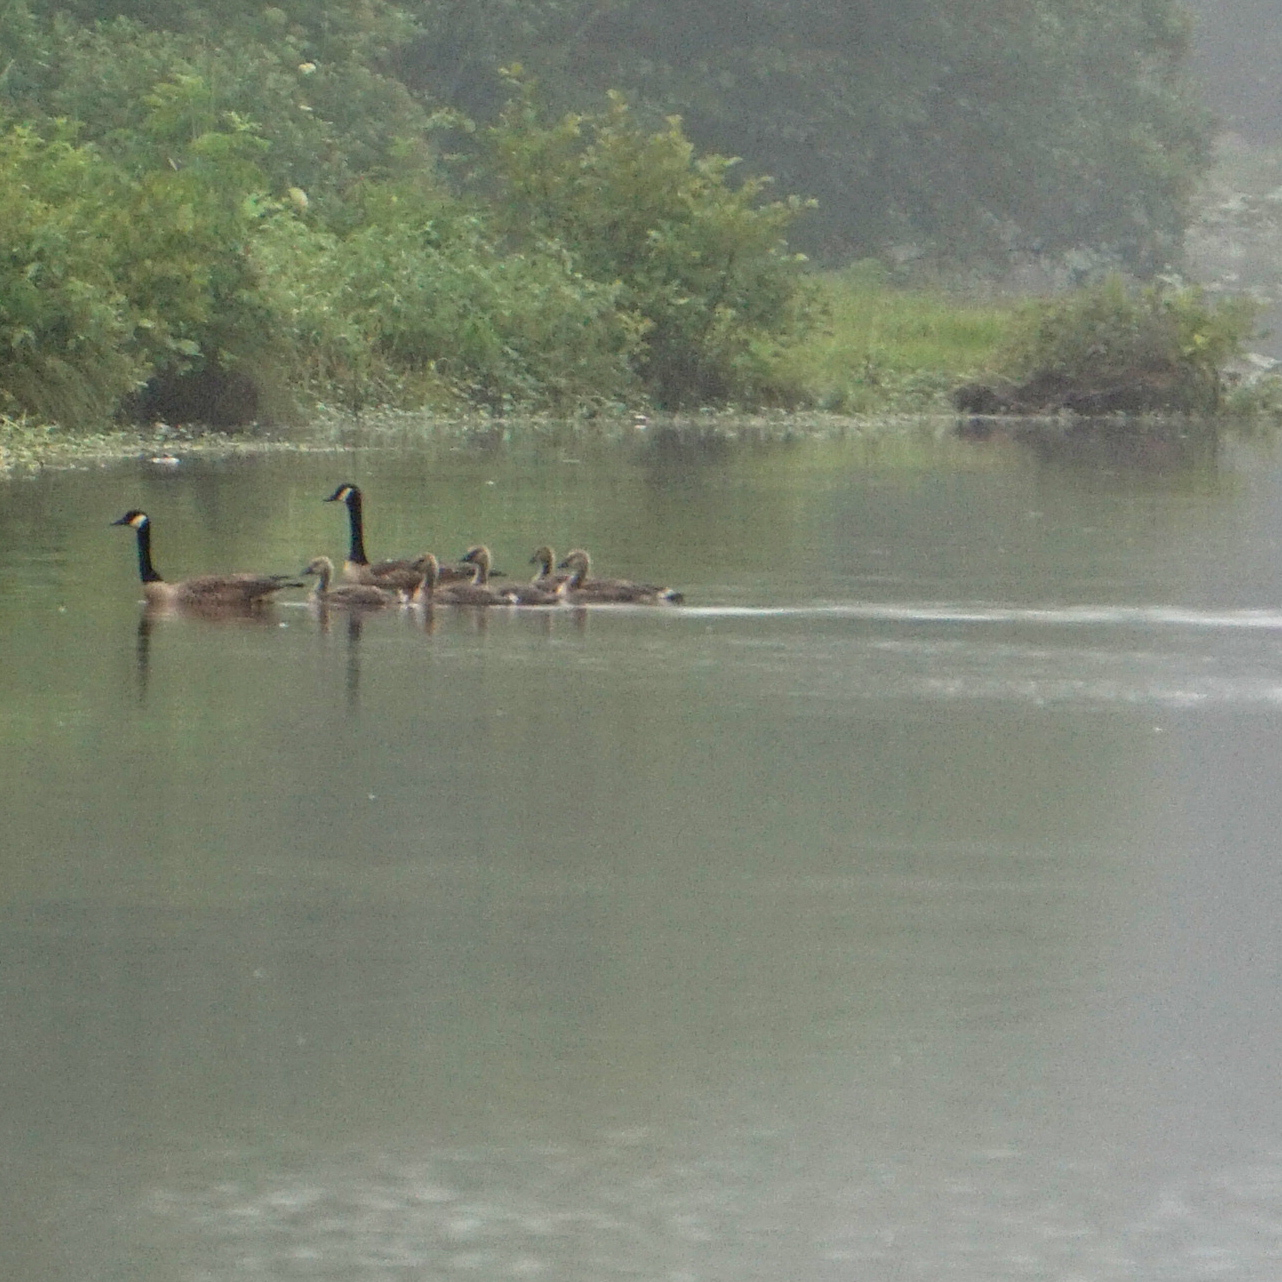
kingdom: Animalia
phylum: Chordata
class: Aves
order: Anseriformes
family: Anatidae
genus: Branta
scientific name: Branta canadensis
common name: Canada goose
